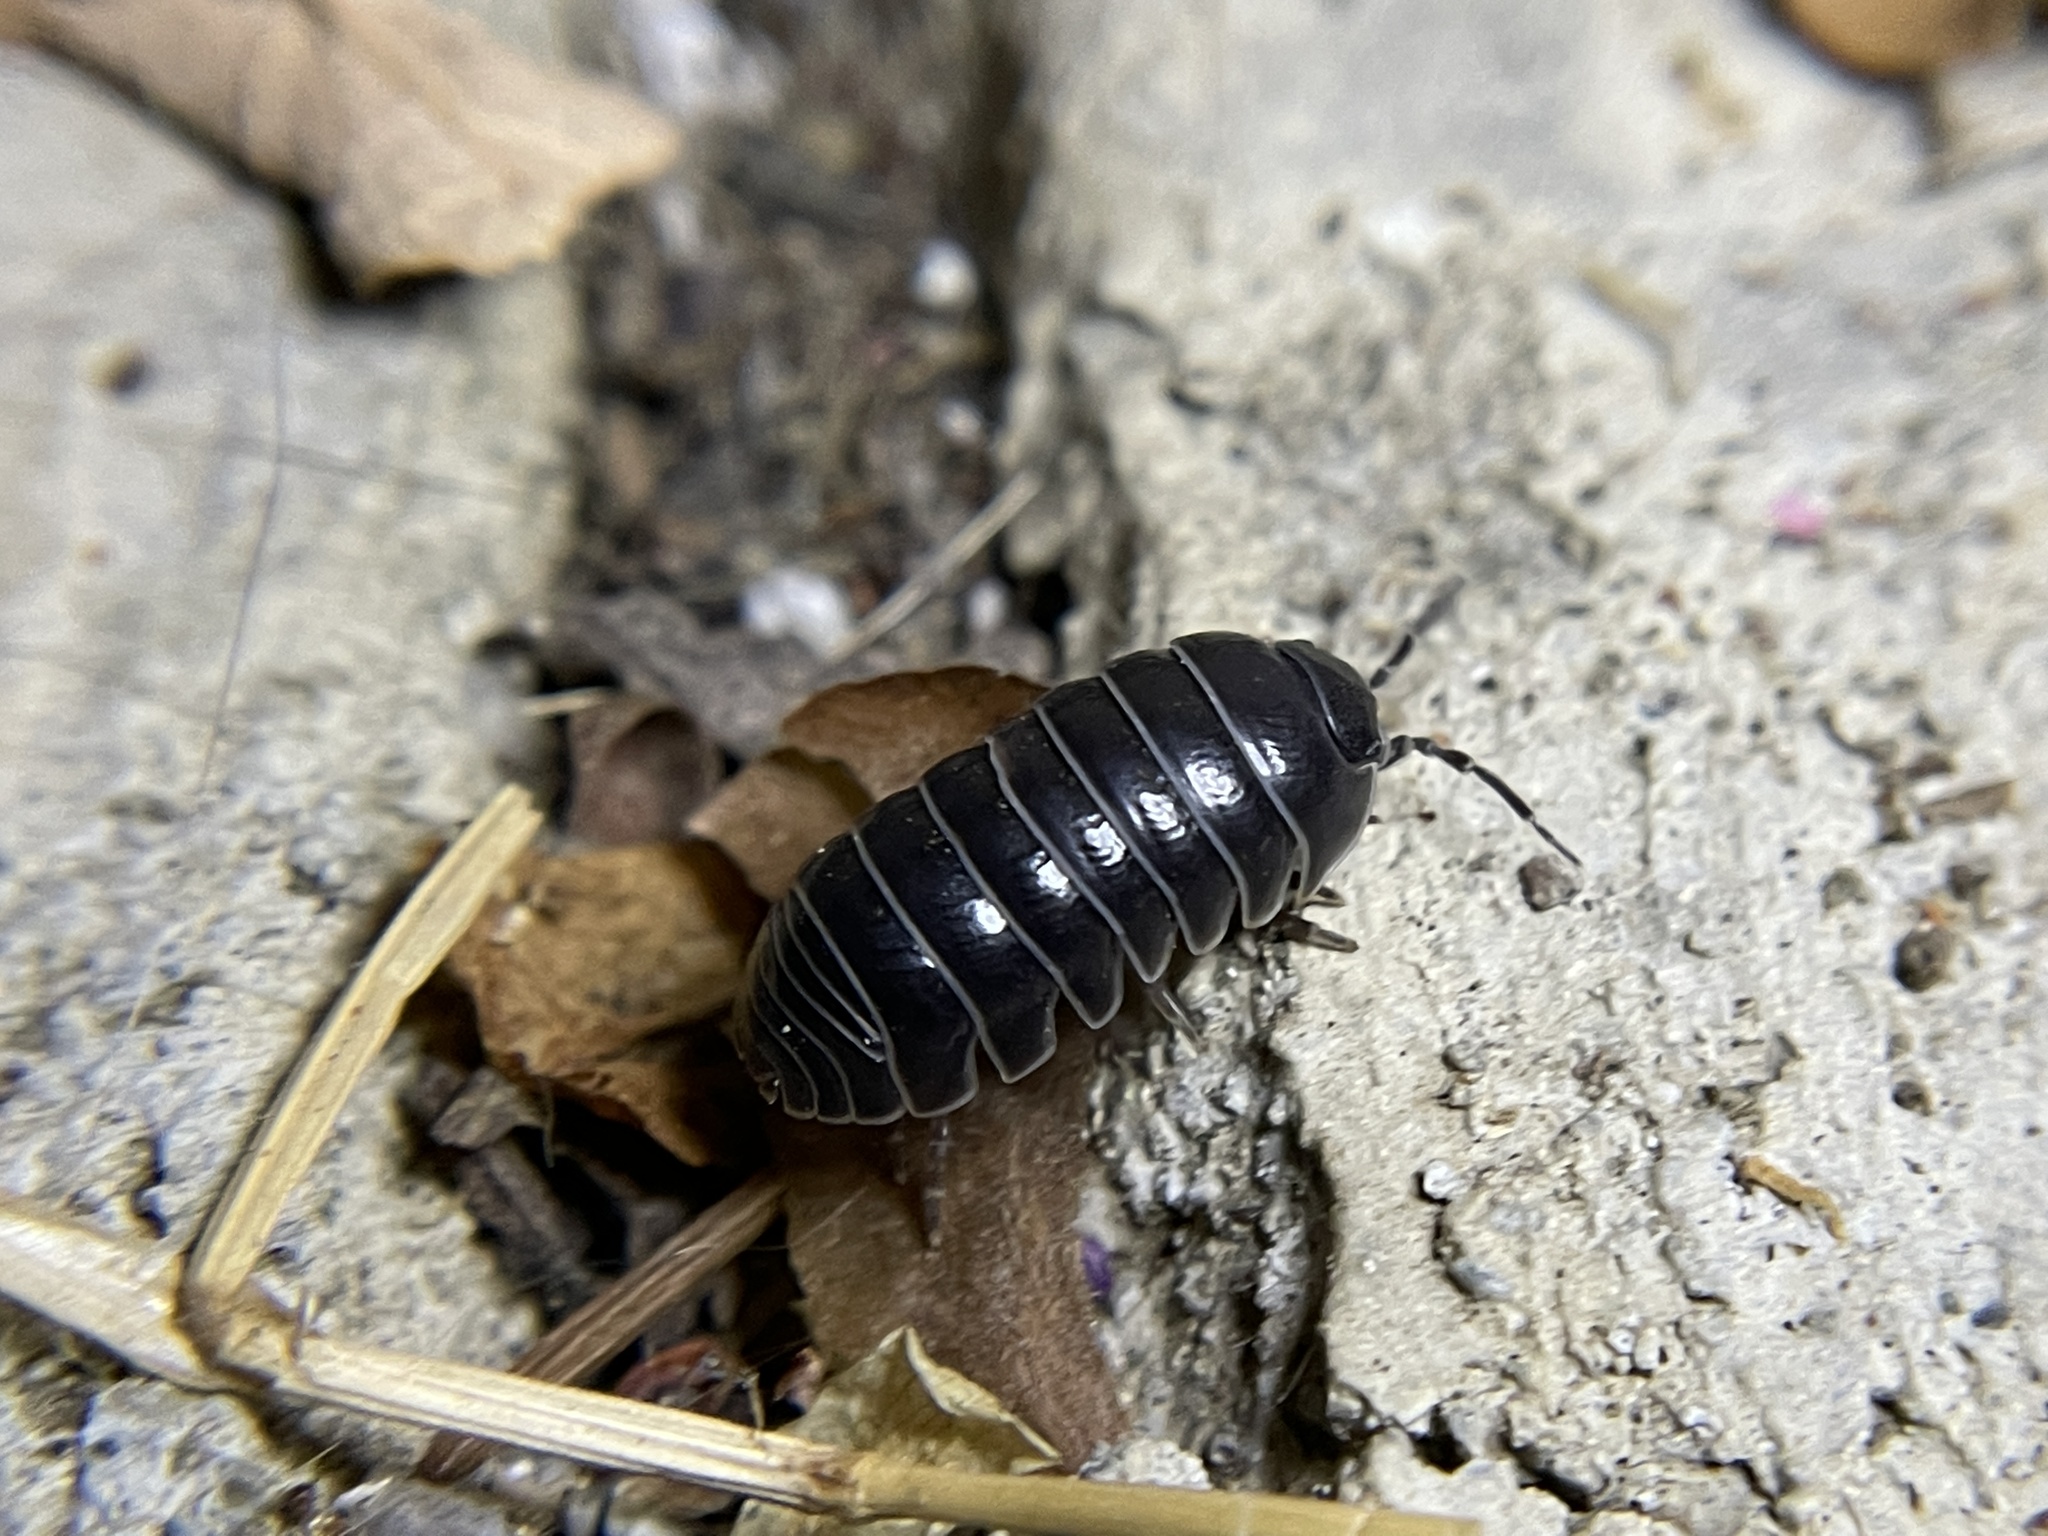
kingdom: Animalia
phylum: Arthropoda
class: Malacostraca
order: Isopoda
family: Armadillidiidae
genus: Armadillidium
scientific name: Armadillidium vulgare
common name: Common pill woodlouse
